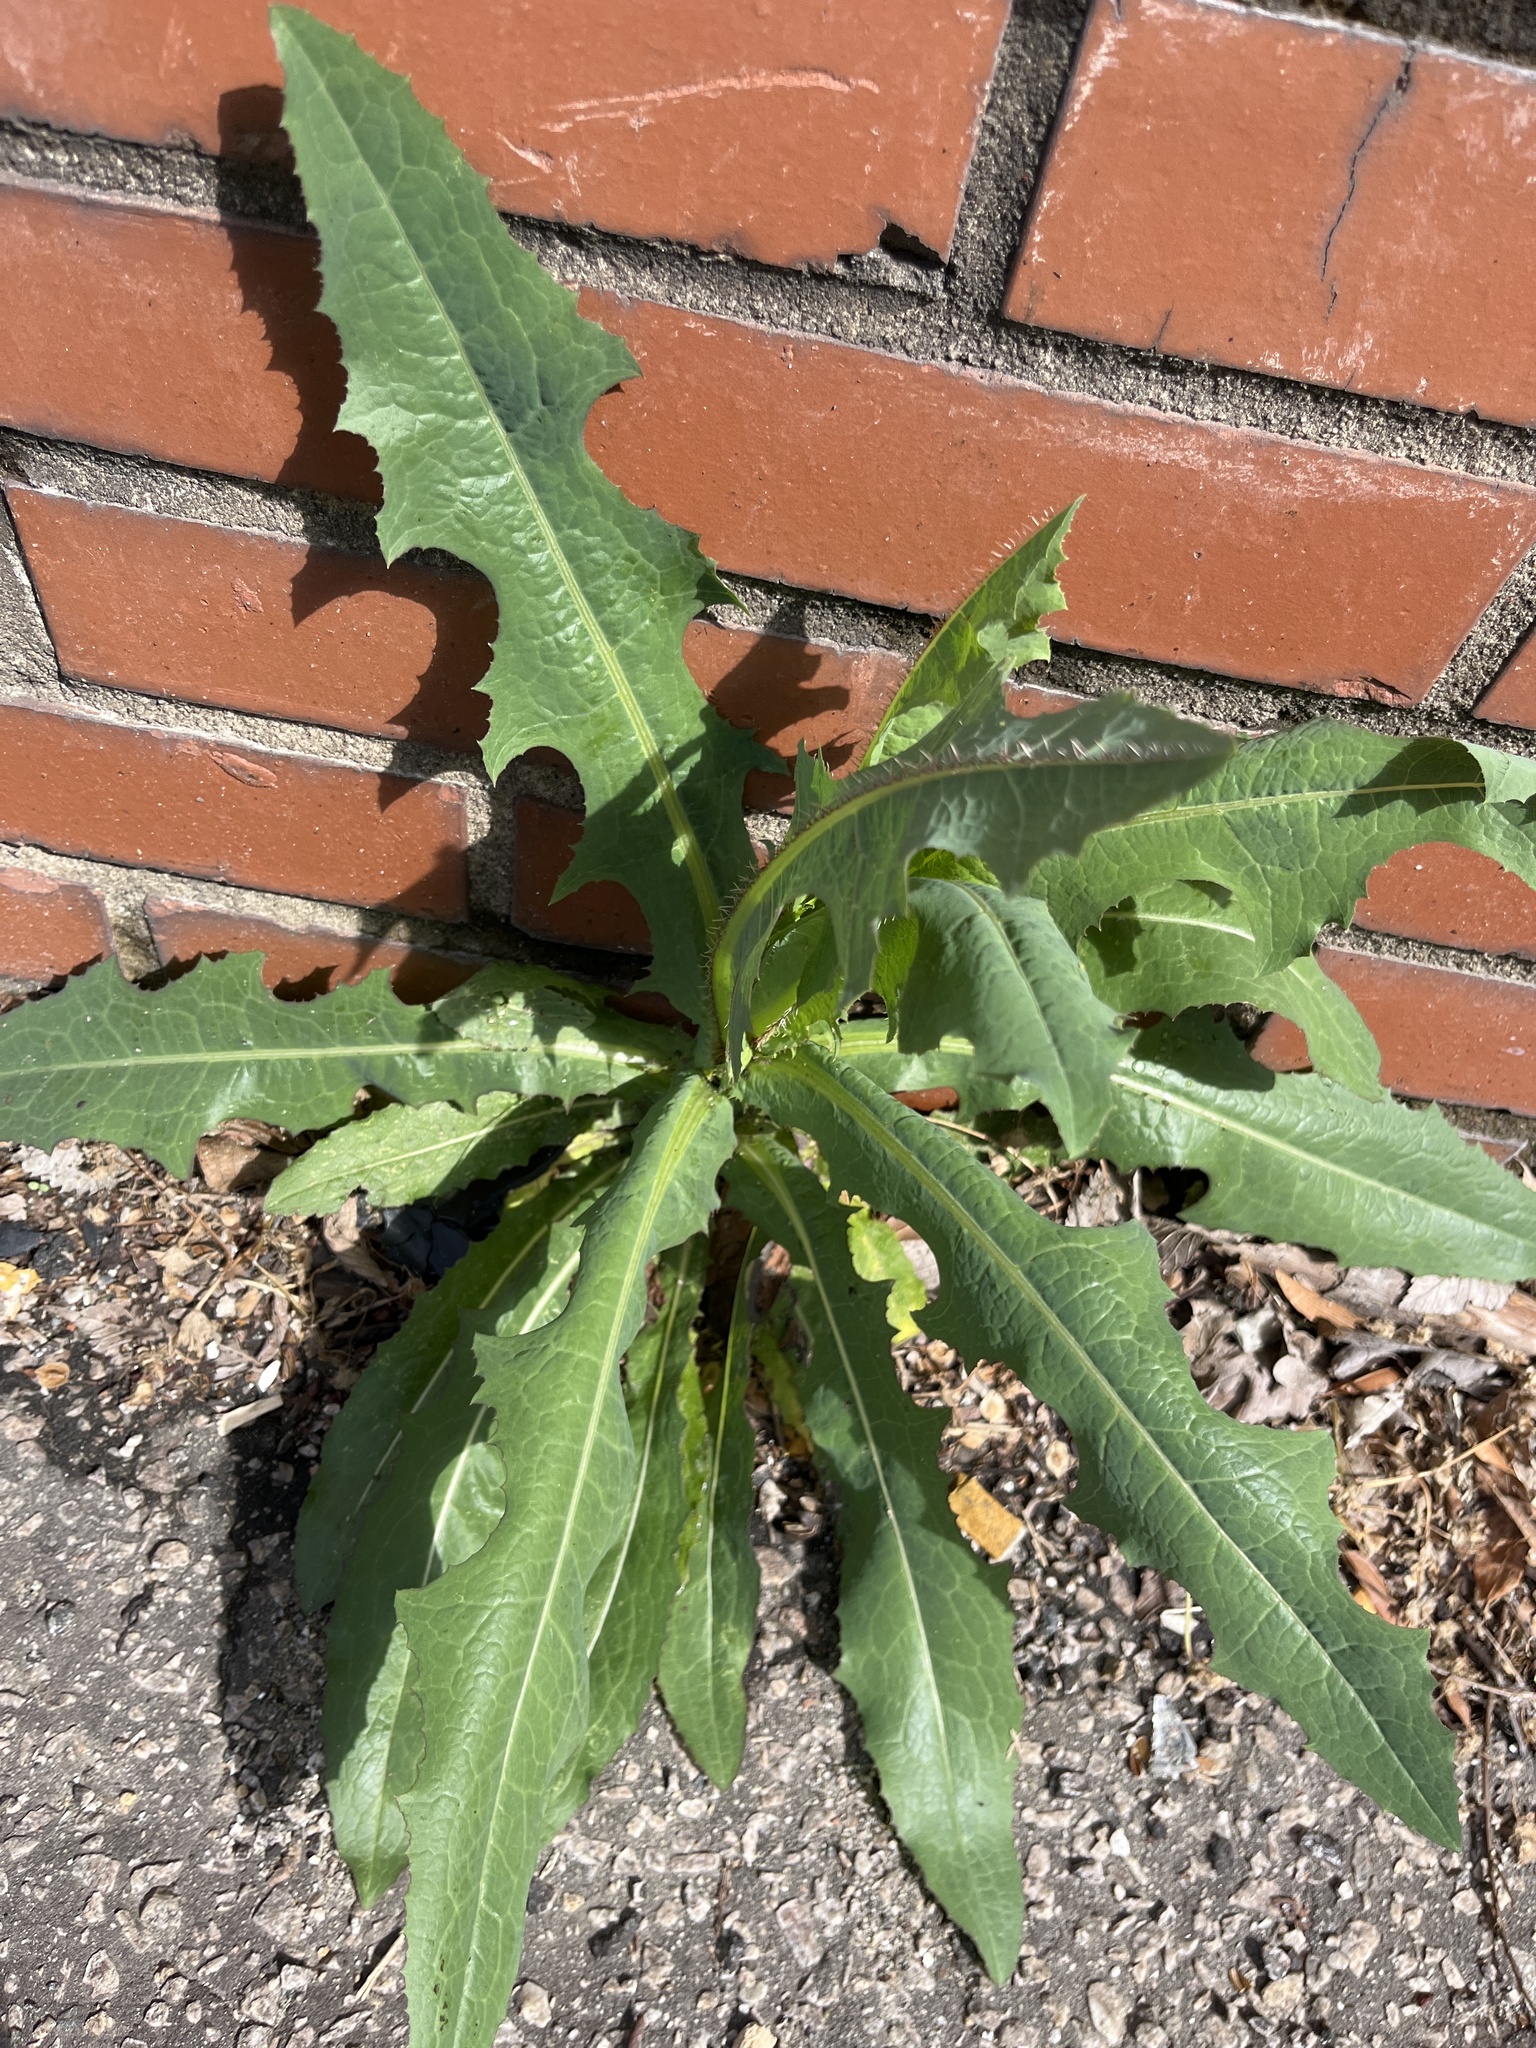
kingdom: Plantae
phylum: Tracheophyta
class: Magnoliopsida
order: Asterales
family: Asteraceae
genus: Lactuca
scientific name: Lactuca serriola
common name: Prickly lettuce
